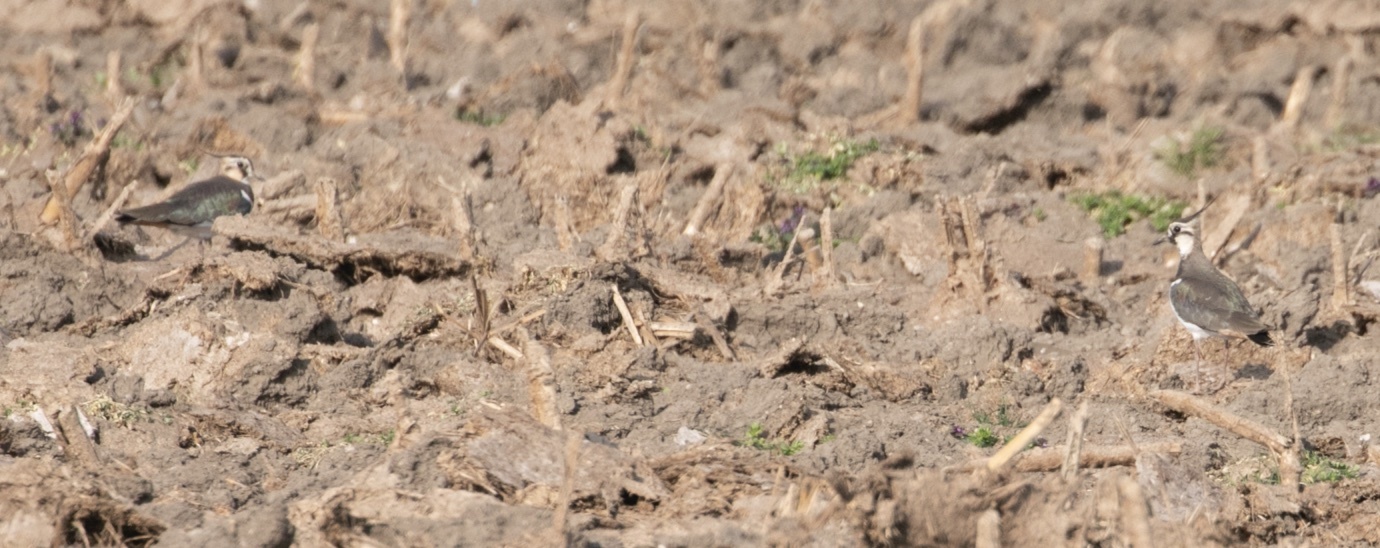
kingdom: Animalia
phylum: Chordata
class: Aves
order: Charadriiformes
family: Charadriidae
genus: Vanellus
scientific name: Vanellus vanellus
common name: Northern lapwing
